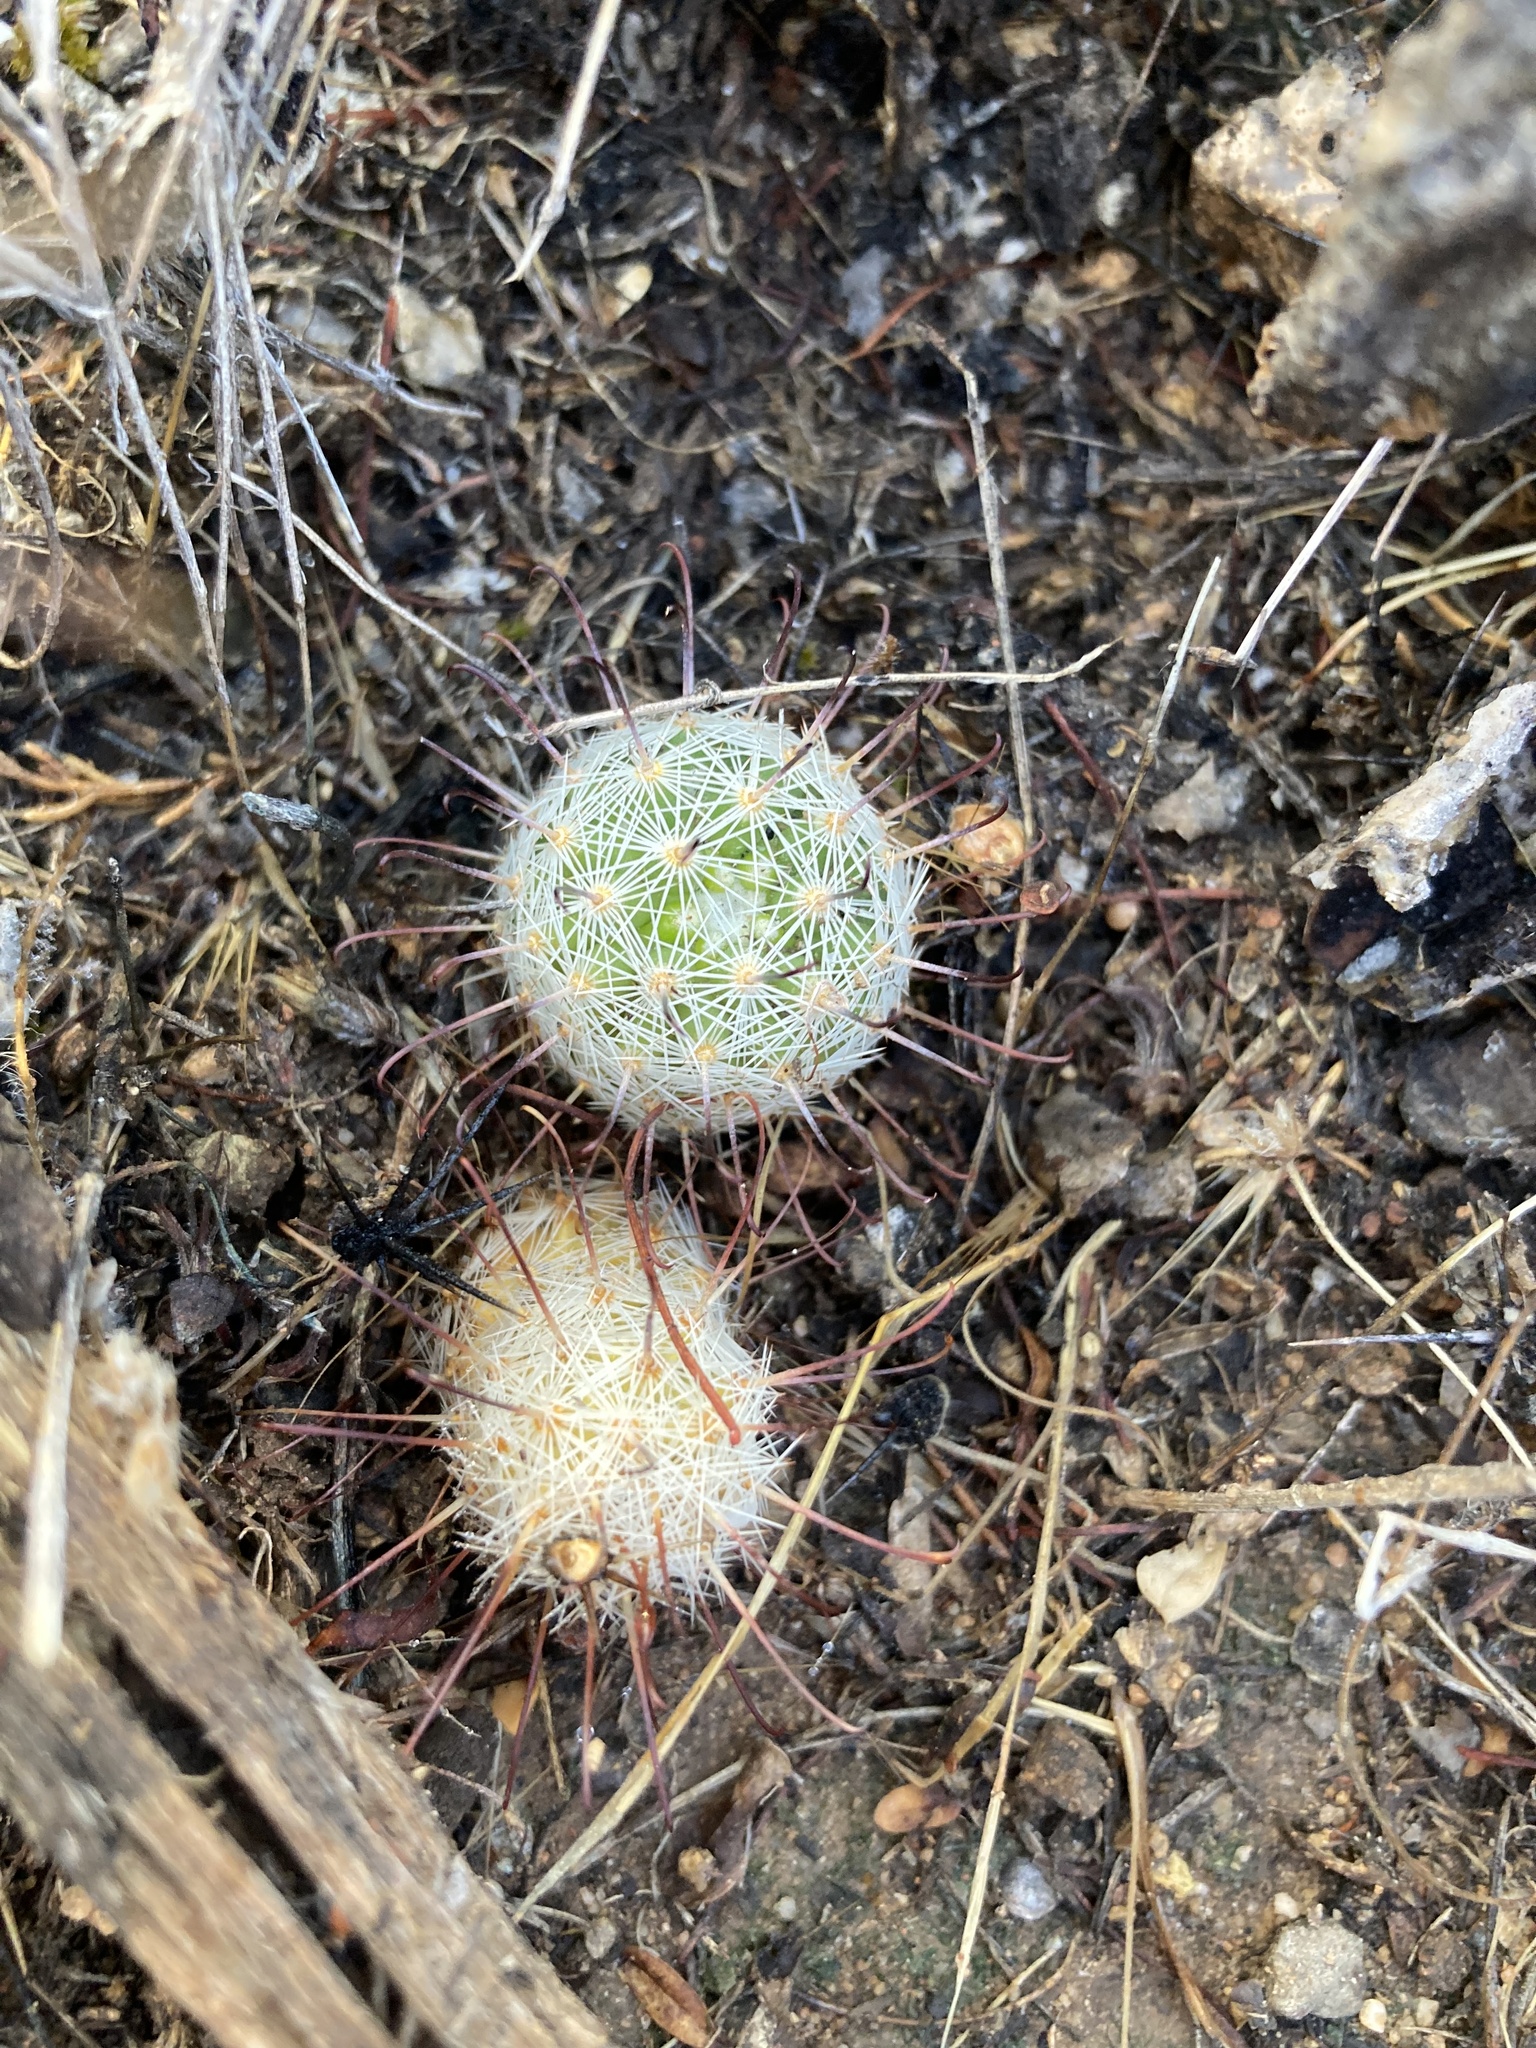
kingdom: Plantae
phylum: Tracheophyta
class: Magnoliopsida
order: Caryophyllales
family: Cactaceae
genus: Cochemiea
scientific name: Cochemiea grahamii
